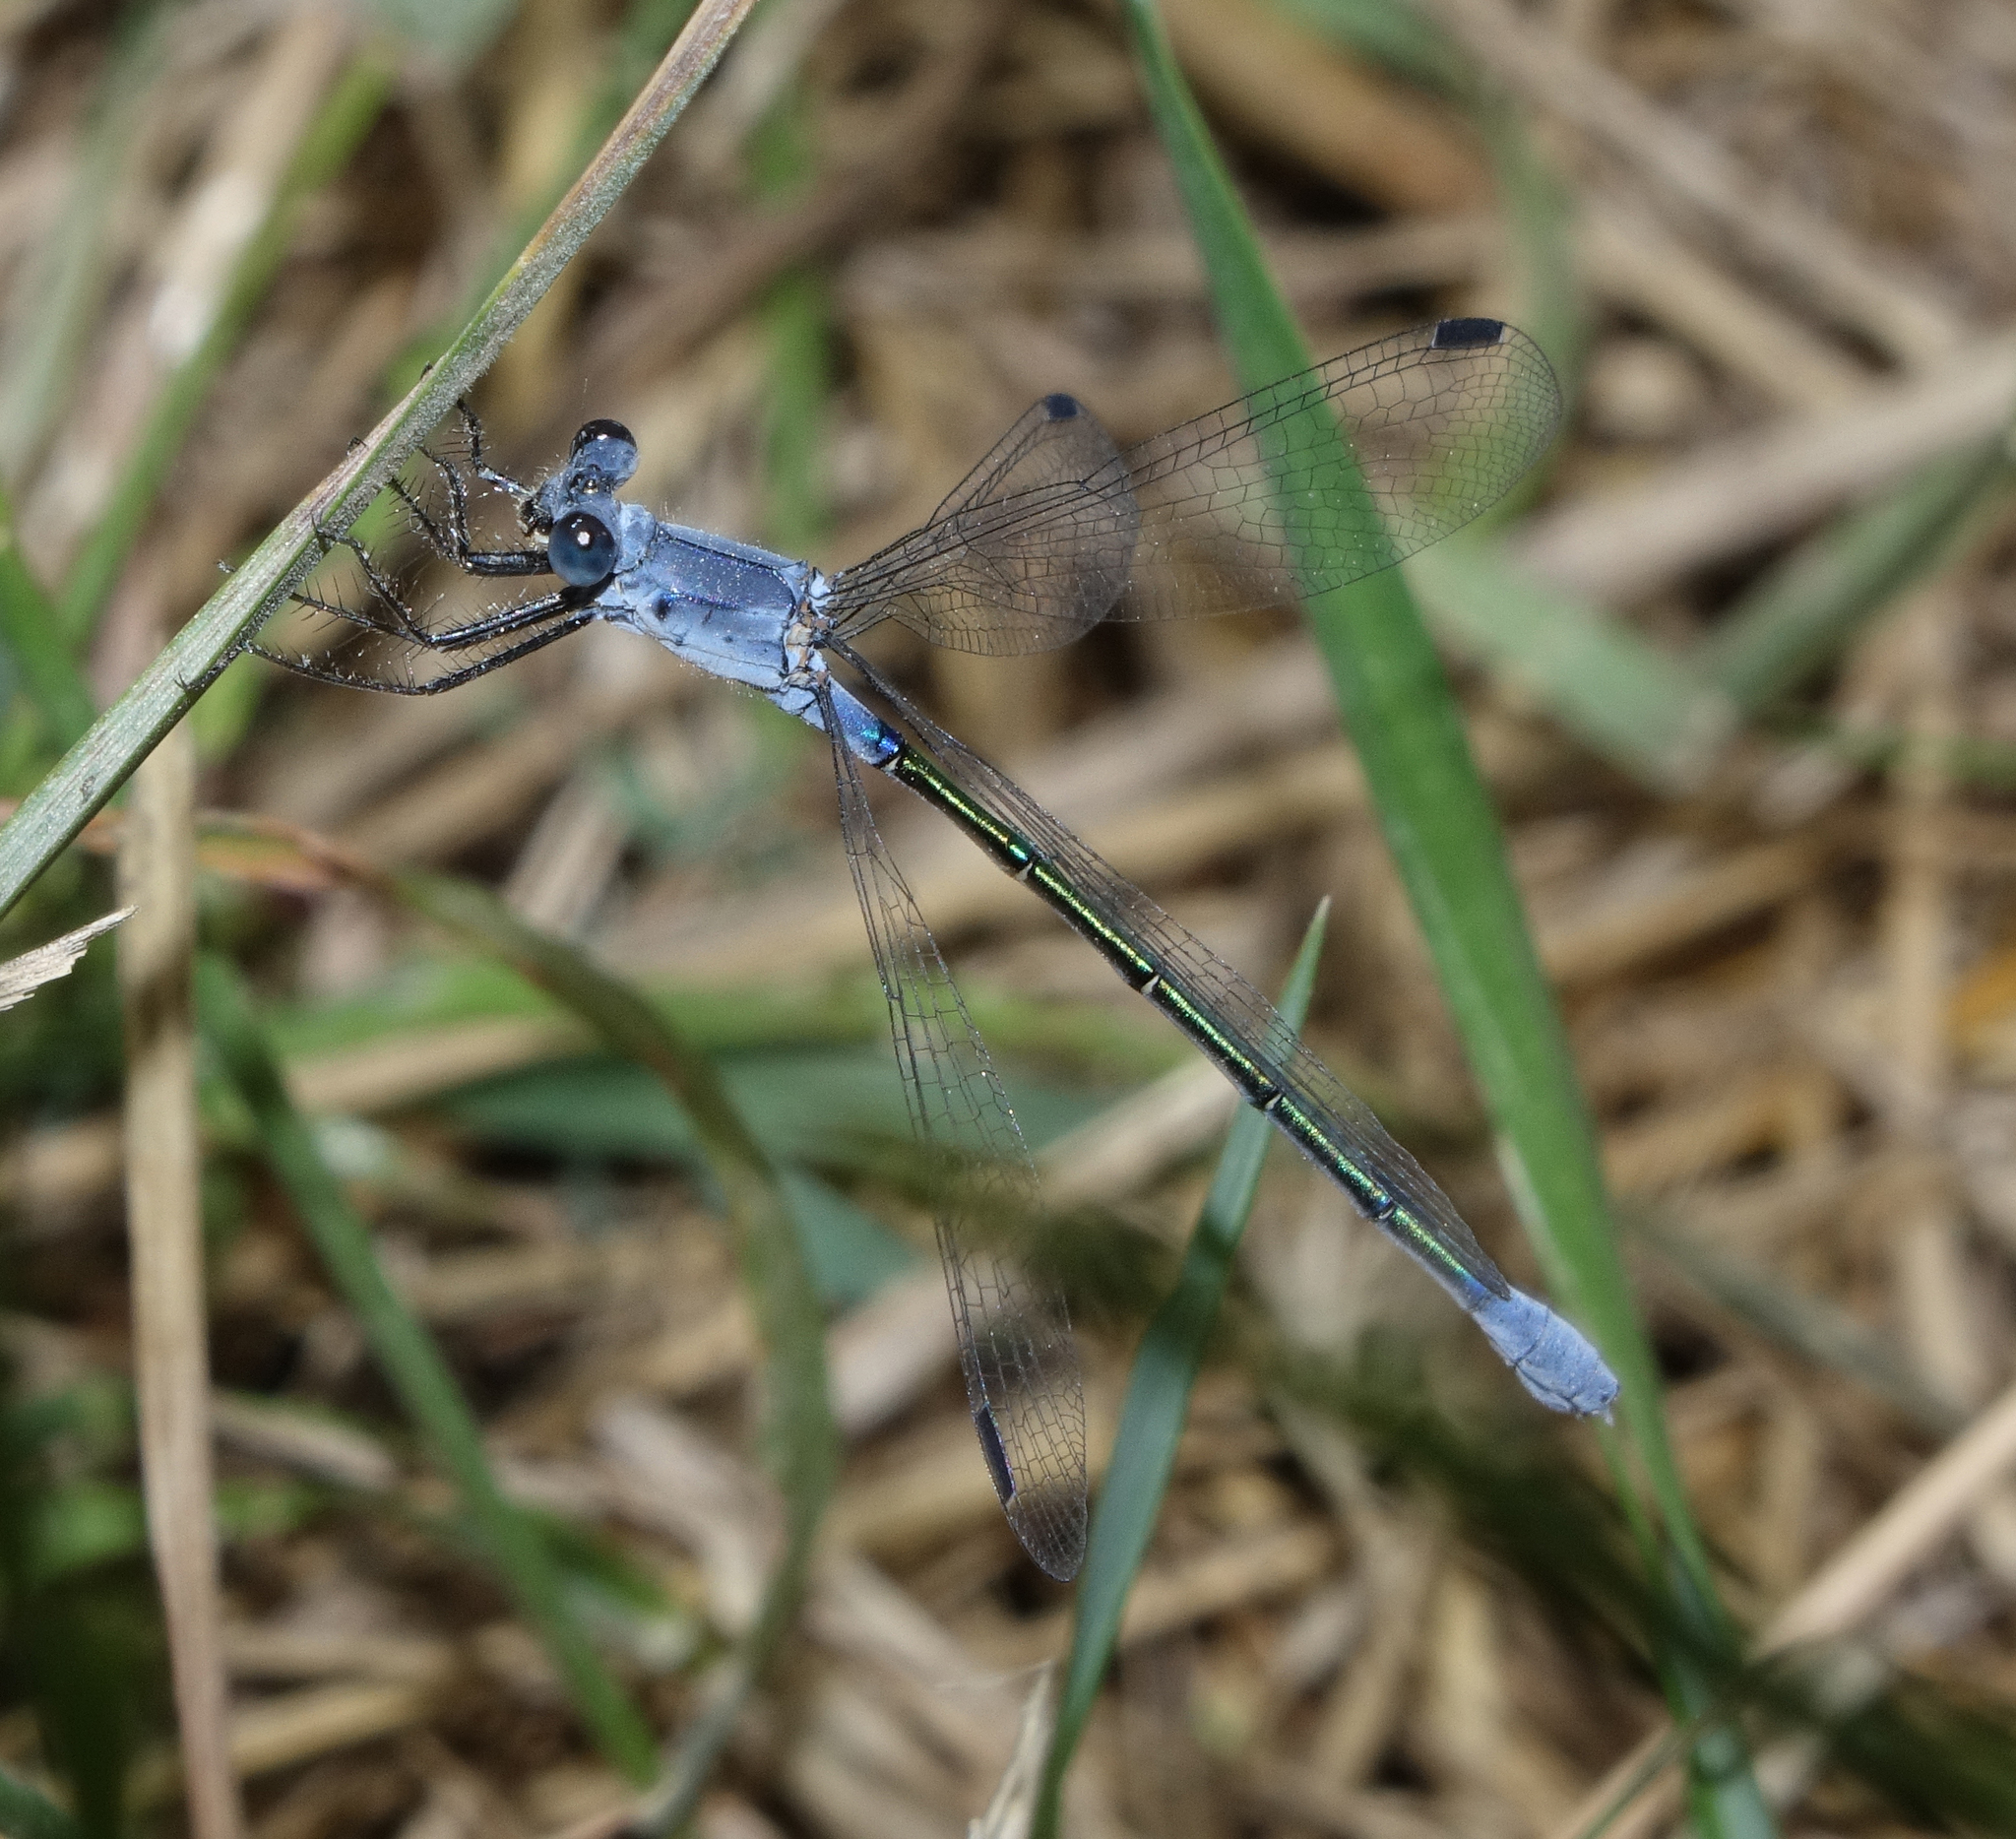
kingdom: Animalia
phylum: Arthropoda
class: Insecta
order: Odonata
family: Lestidae
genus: Lestes
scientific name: Lestes macrostigma
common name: Dark spreadwing
